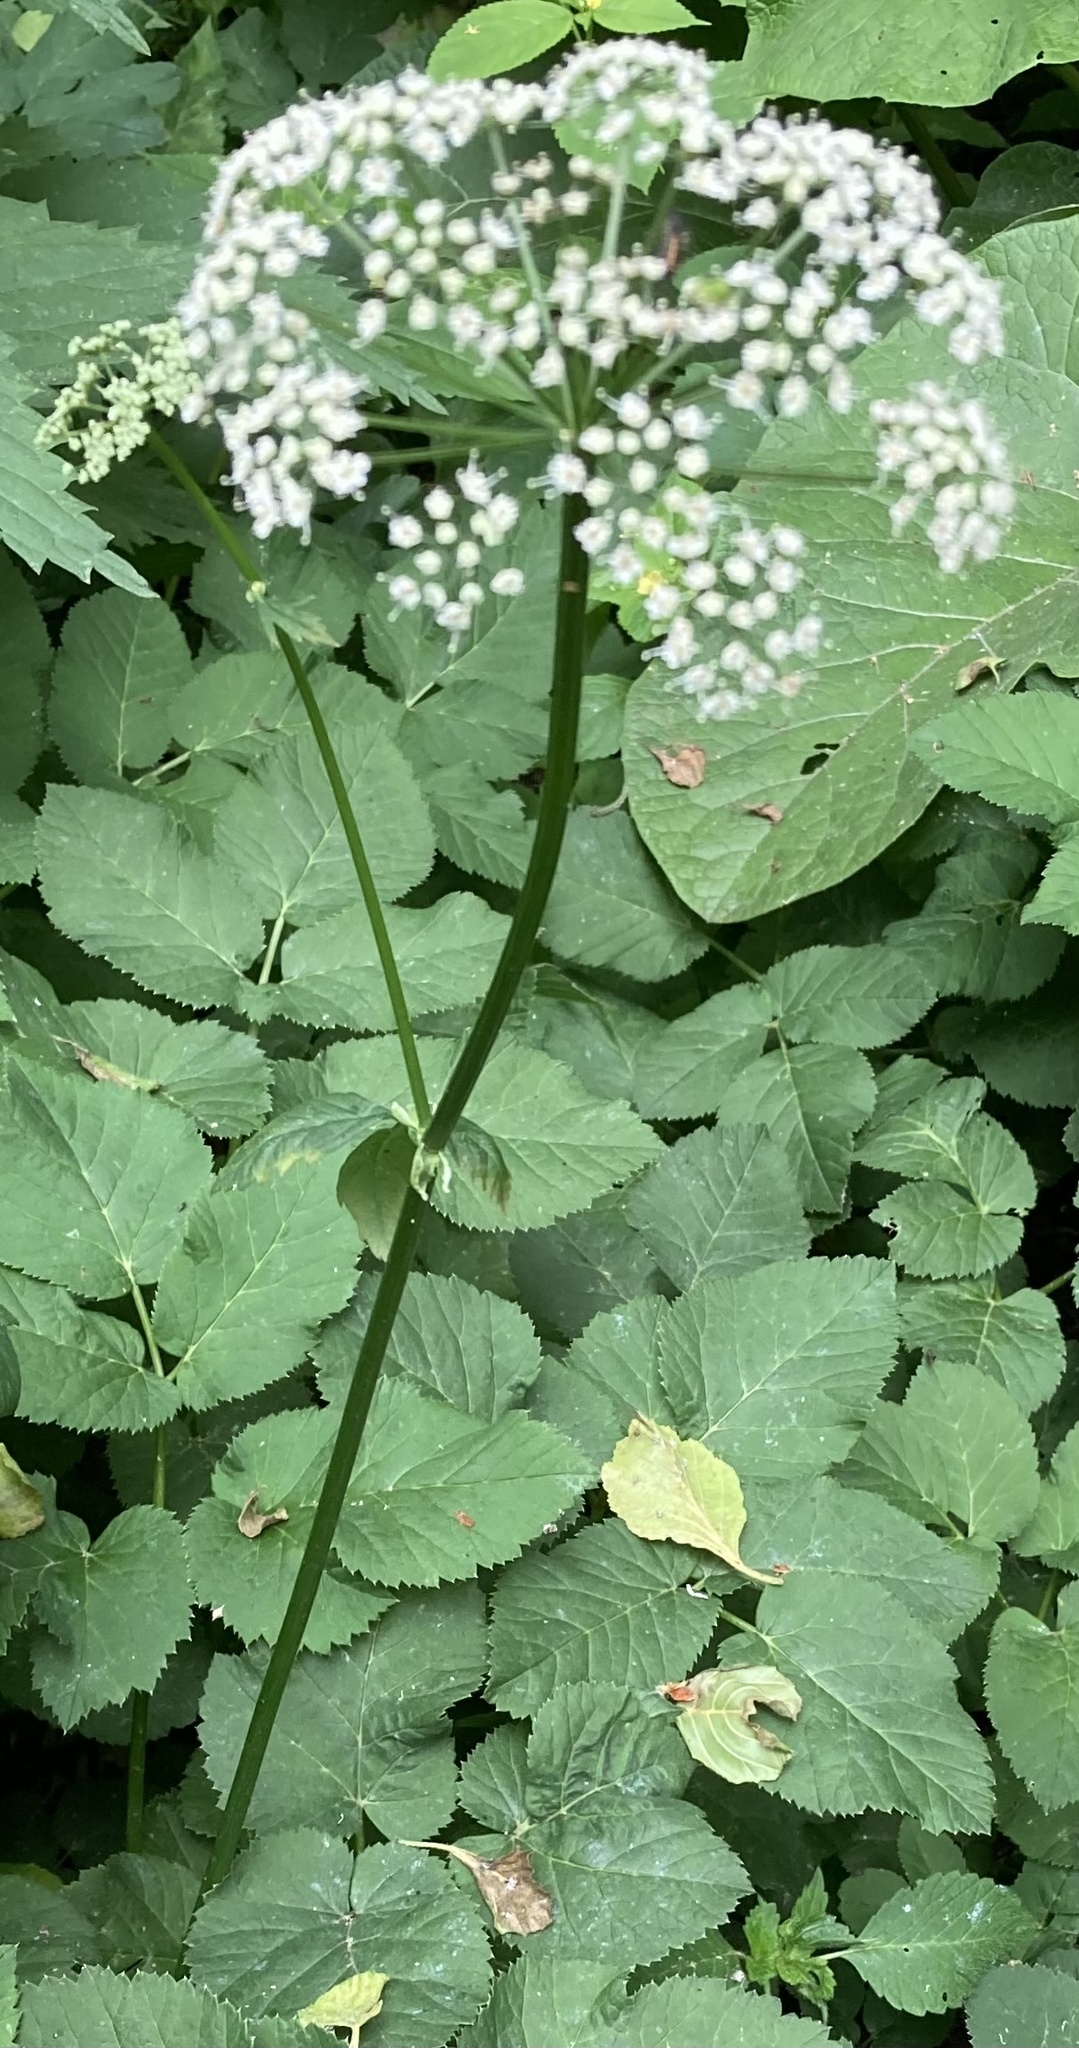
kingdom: Plantae
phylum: Tracheophyta
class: Magnoliopsida
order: Apiales
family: Apiaceae
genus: Aegopodium
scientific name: Aegopodium podagraria
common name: Ground-elder
